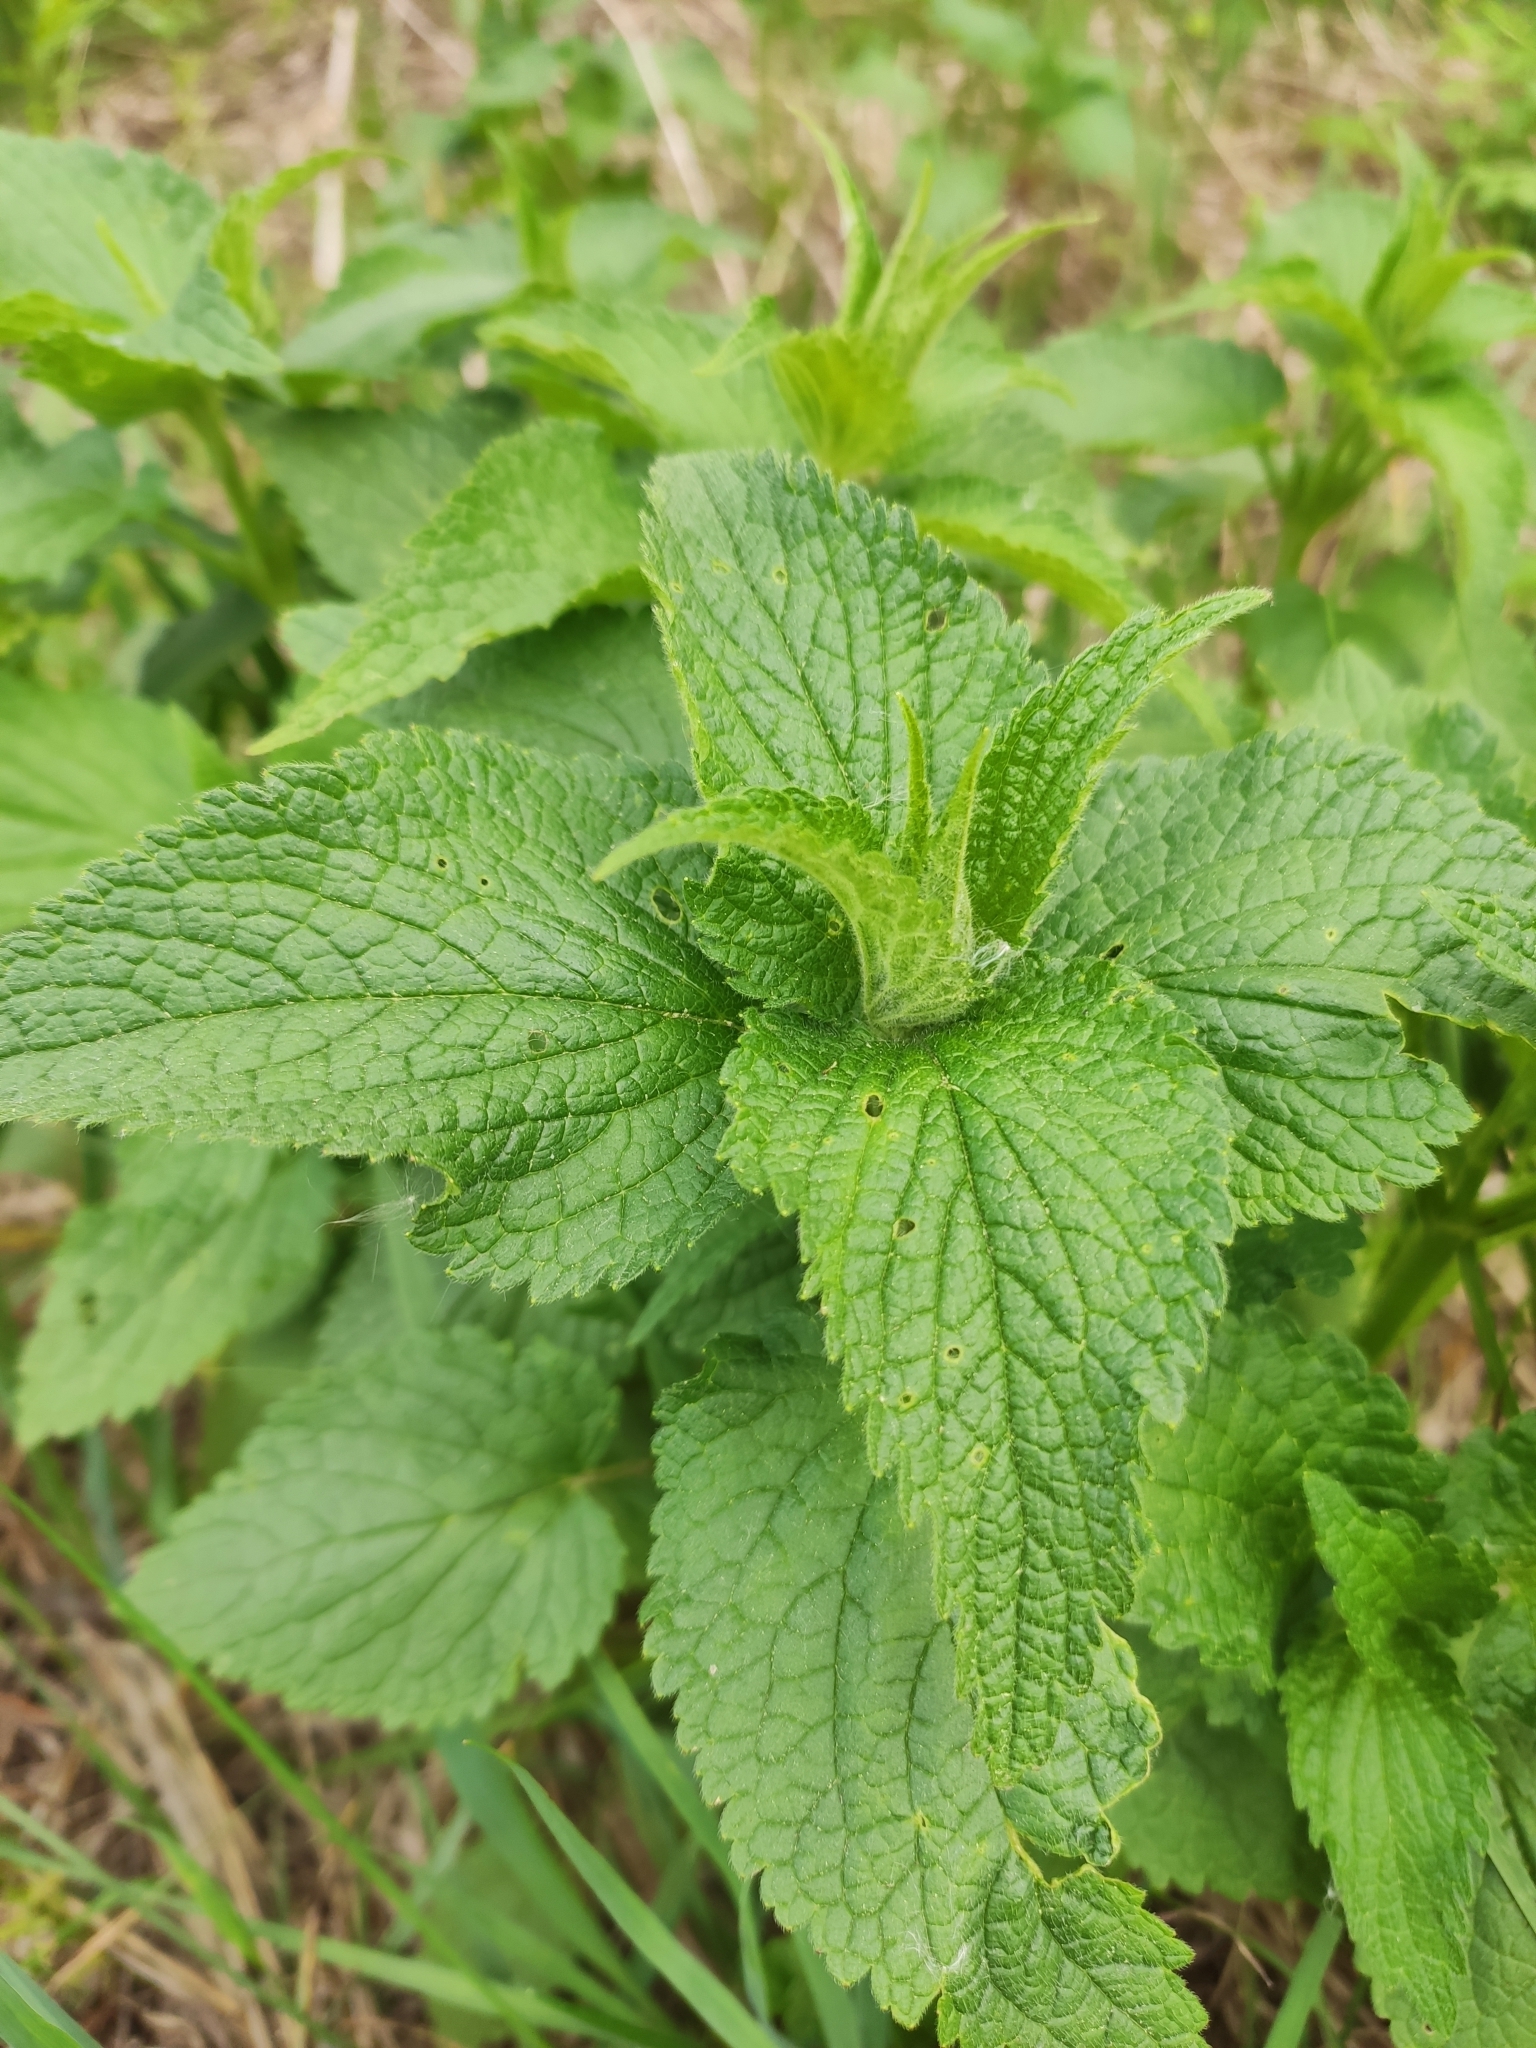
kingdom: Plantae
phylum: Tracheophyta
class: Magnoliopsida
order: Lamiales
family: Lamiaceae
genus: Lamium
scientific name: Lamium album
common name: White dead-nettle
